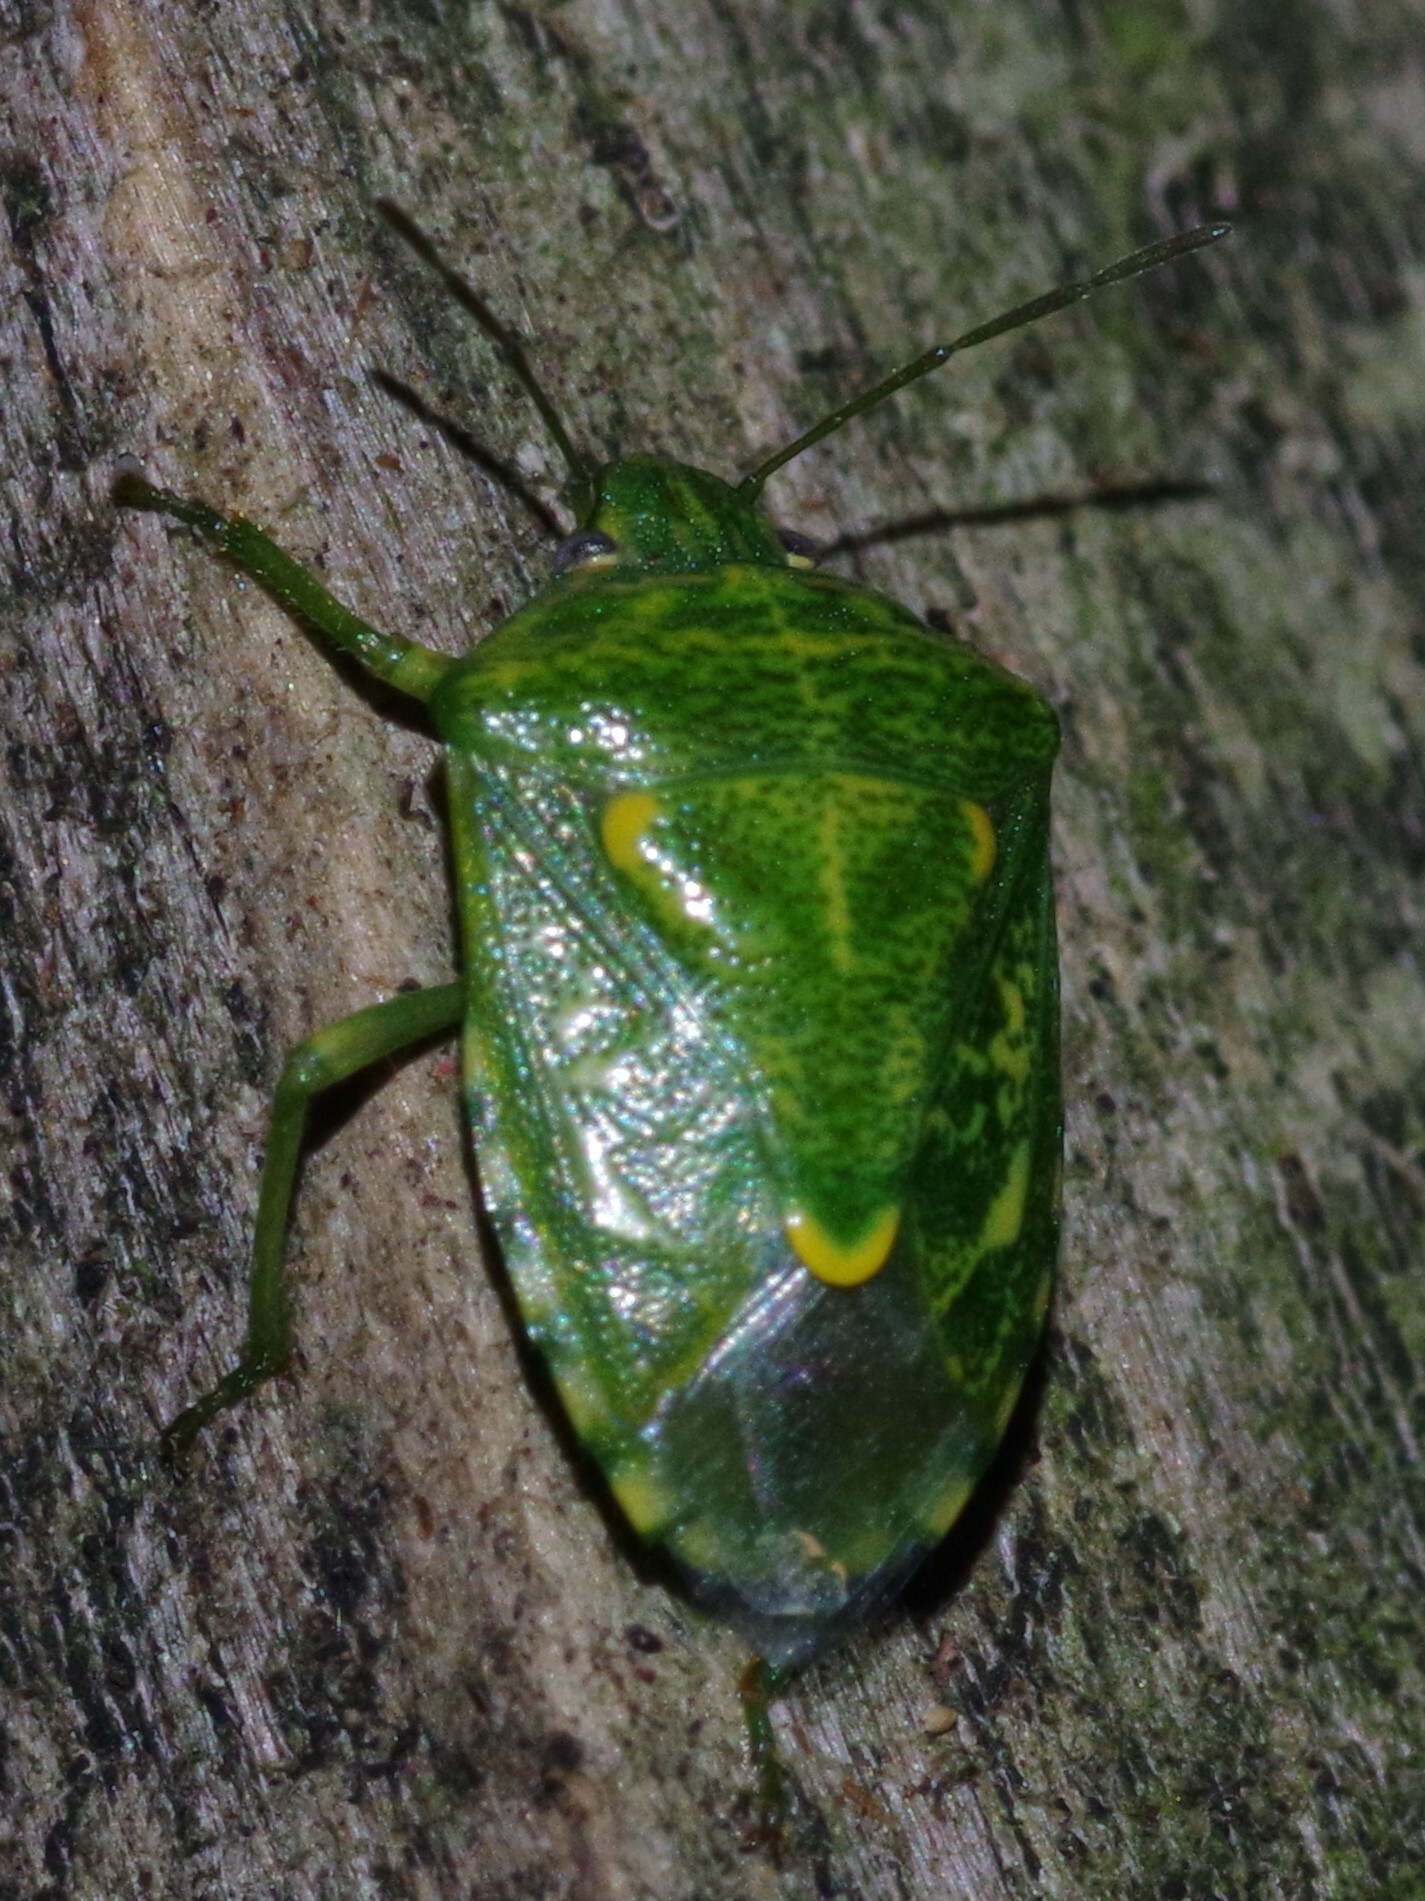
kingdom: Animalia
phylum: Arthropoda
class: Insecta
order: Hemiptera
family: Pentatomidae
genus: Banasa
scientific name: Banasa euchlora
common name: Cedar berry bug
